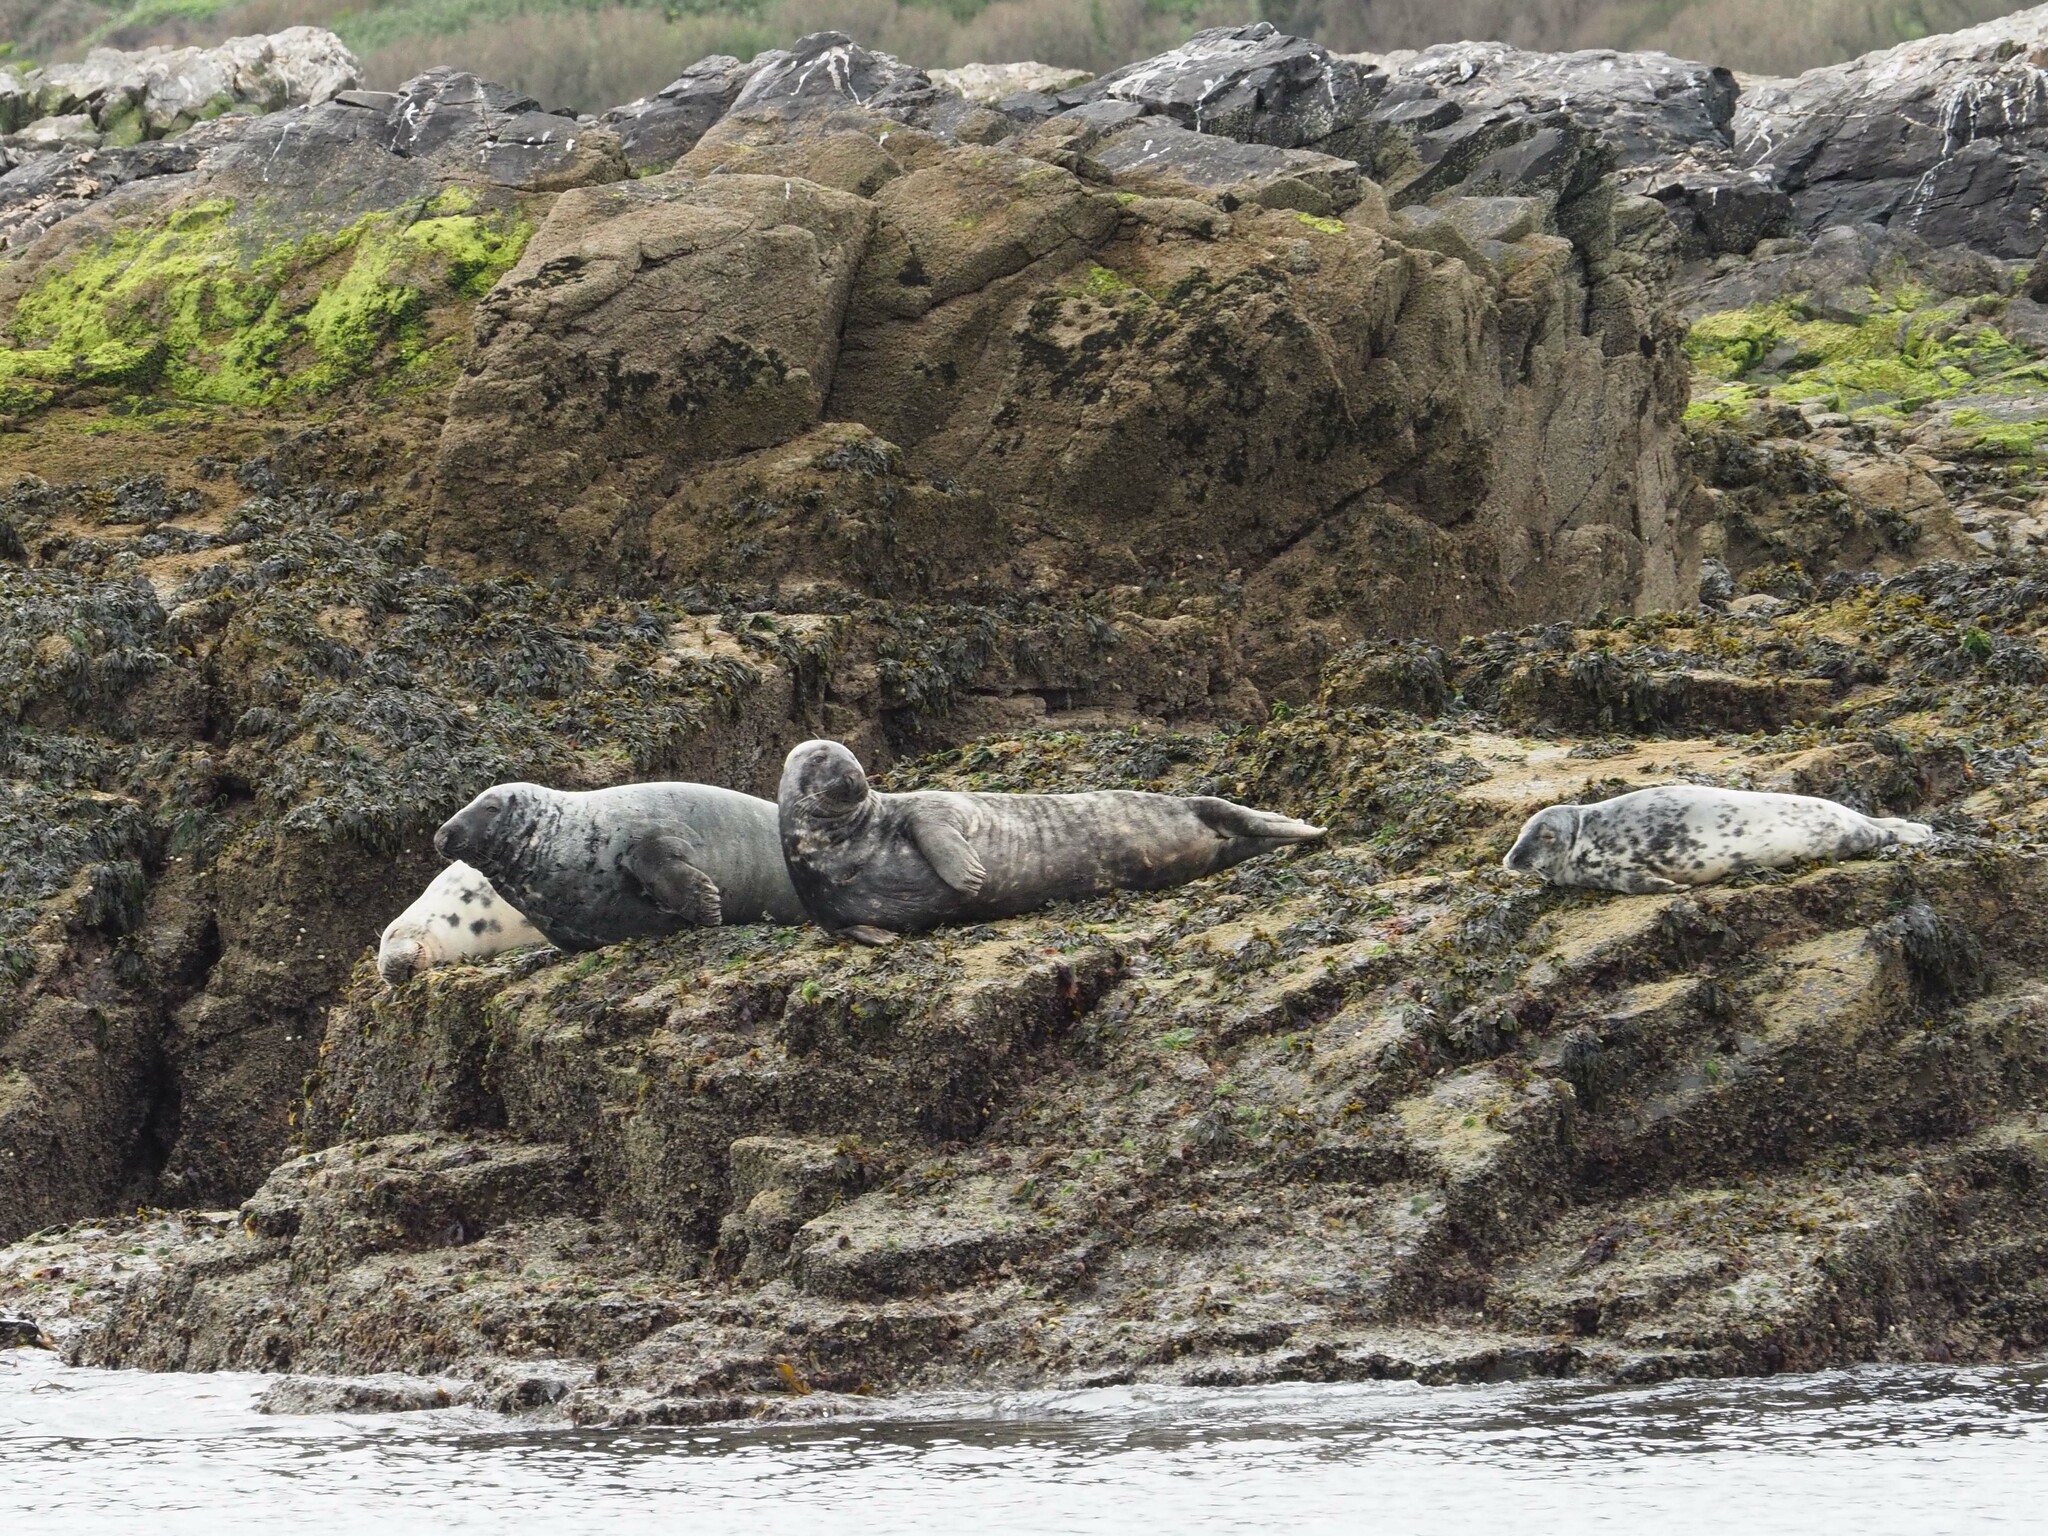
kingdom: Animalia
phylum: Chordata
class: Mammalia
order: Carnivora
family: Phocidae
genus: Halichoerus
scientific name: Halichoerus grypus
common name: Grey seal
